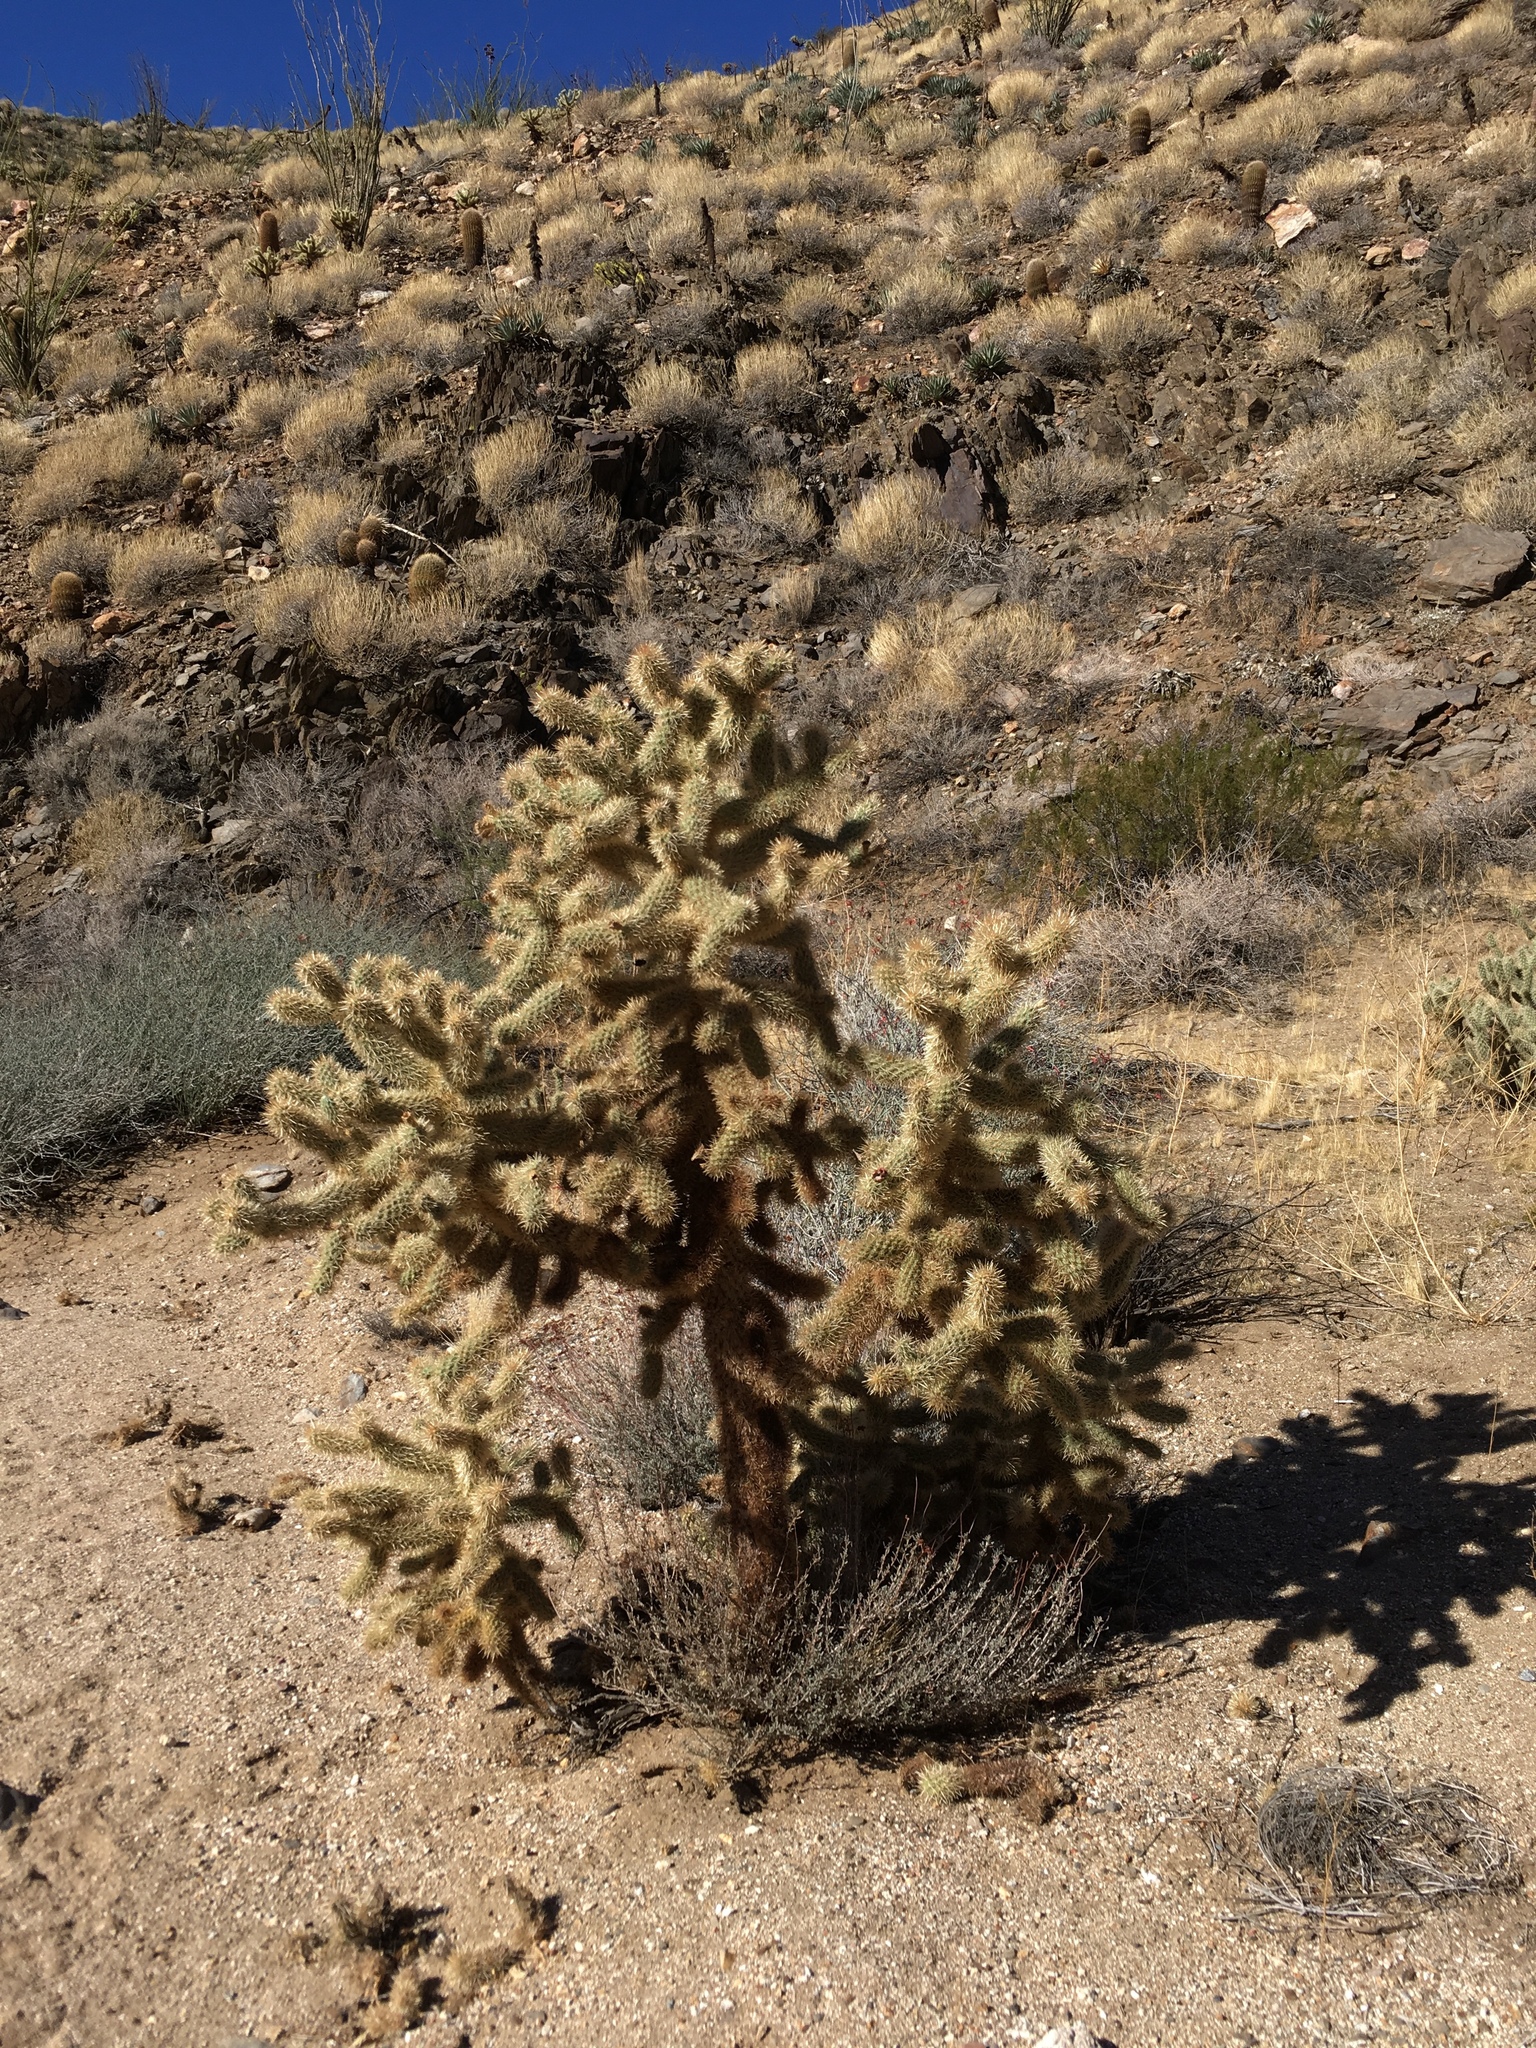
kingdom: Plantae
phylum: Tracheophyta
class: Magnoliopsida
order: Caryophyllales
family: Cactaceae
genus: Cylindropuntia
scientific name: Cylindropuntia fosbergii
